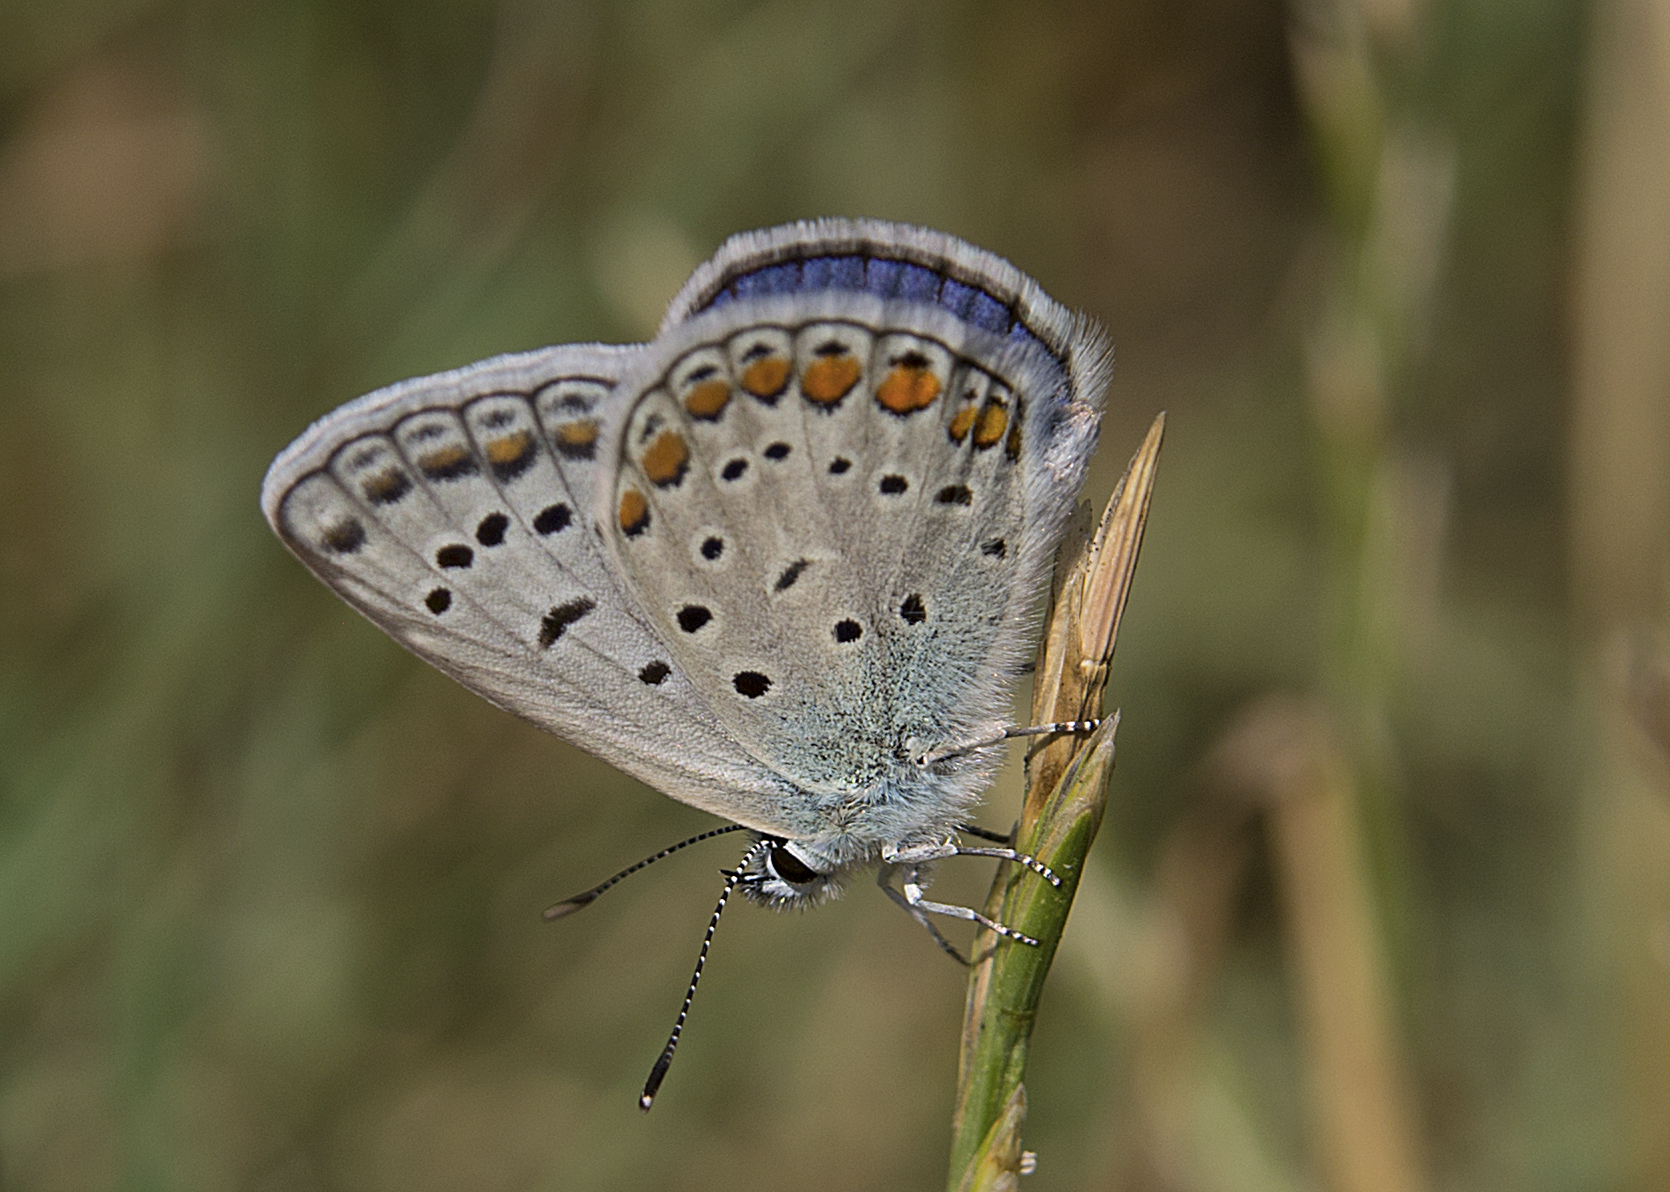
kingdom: Animalia
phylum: Arthropoda
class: Insecta
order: Lepidoptera
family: Lycaenidae
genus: Polyommatus
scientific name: Polyommatus icarus
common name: Common blue
